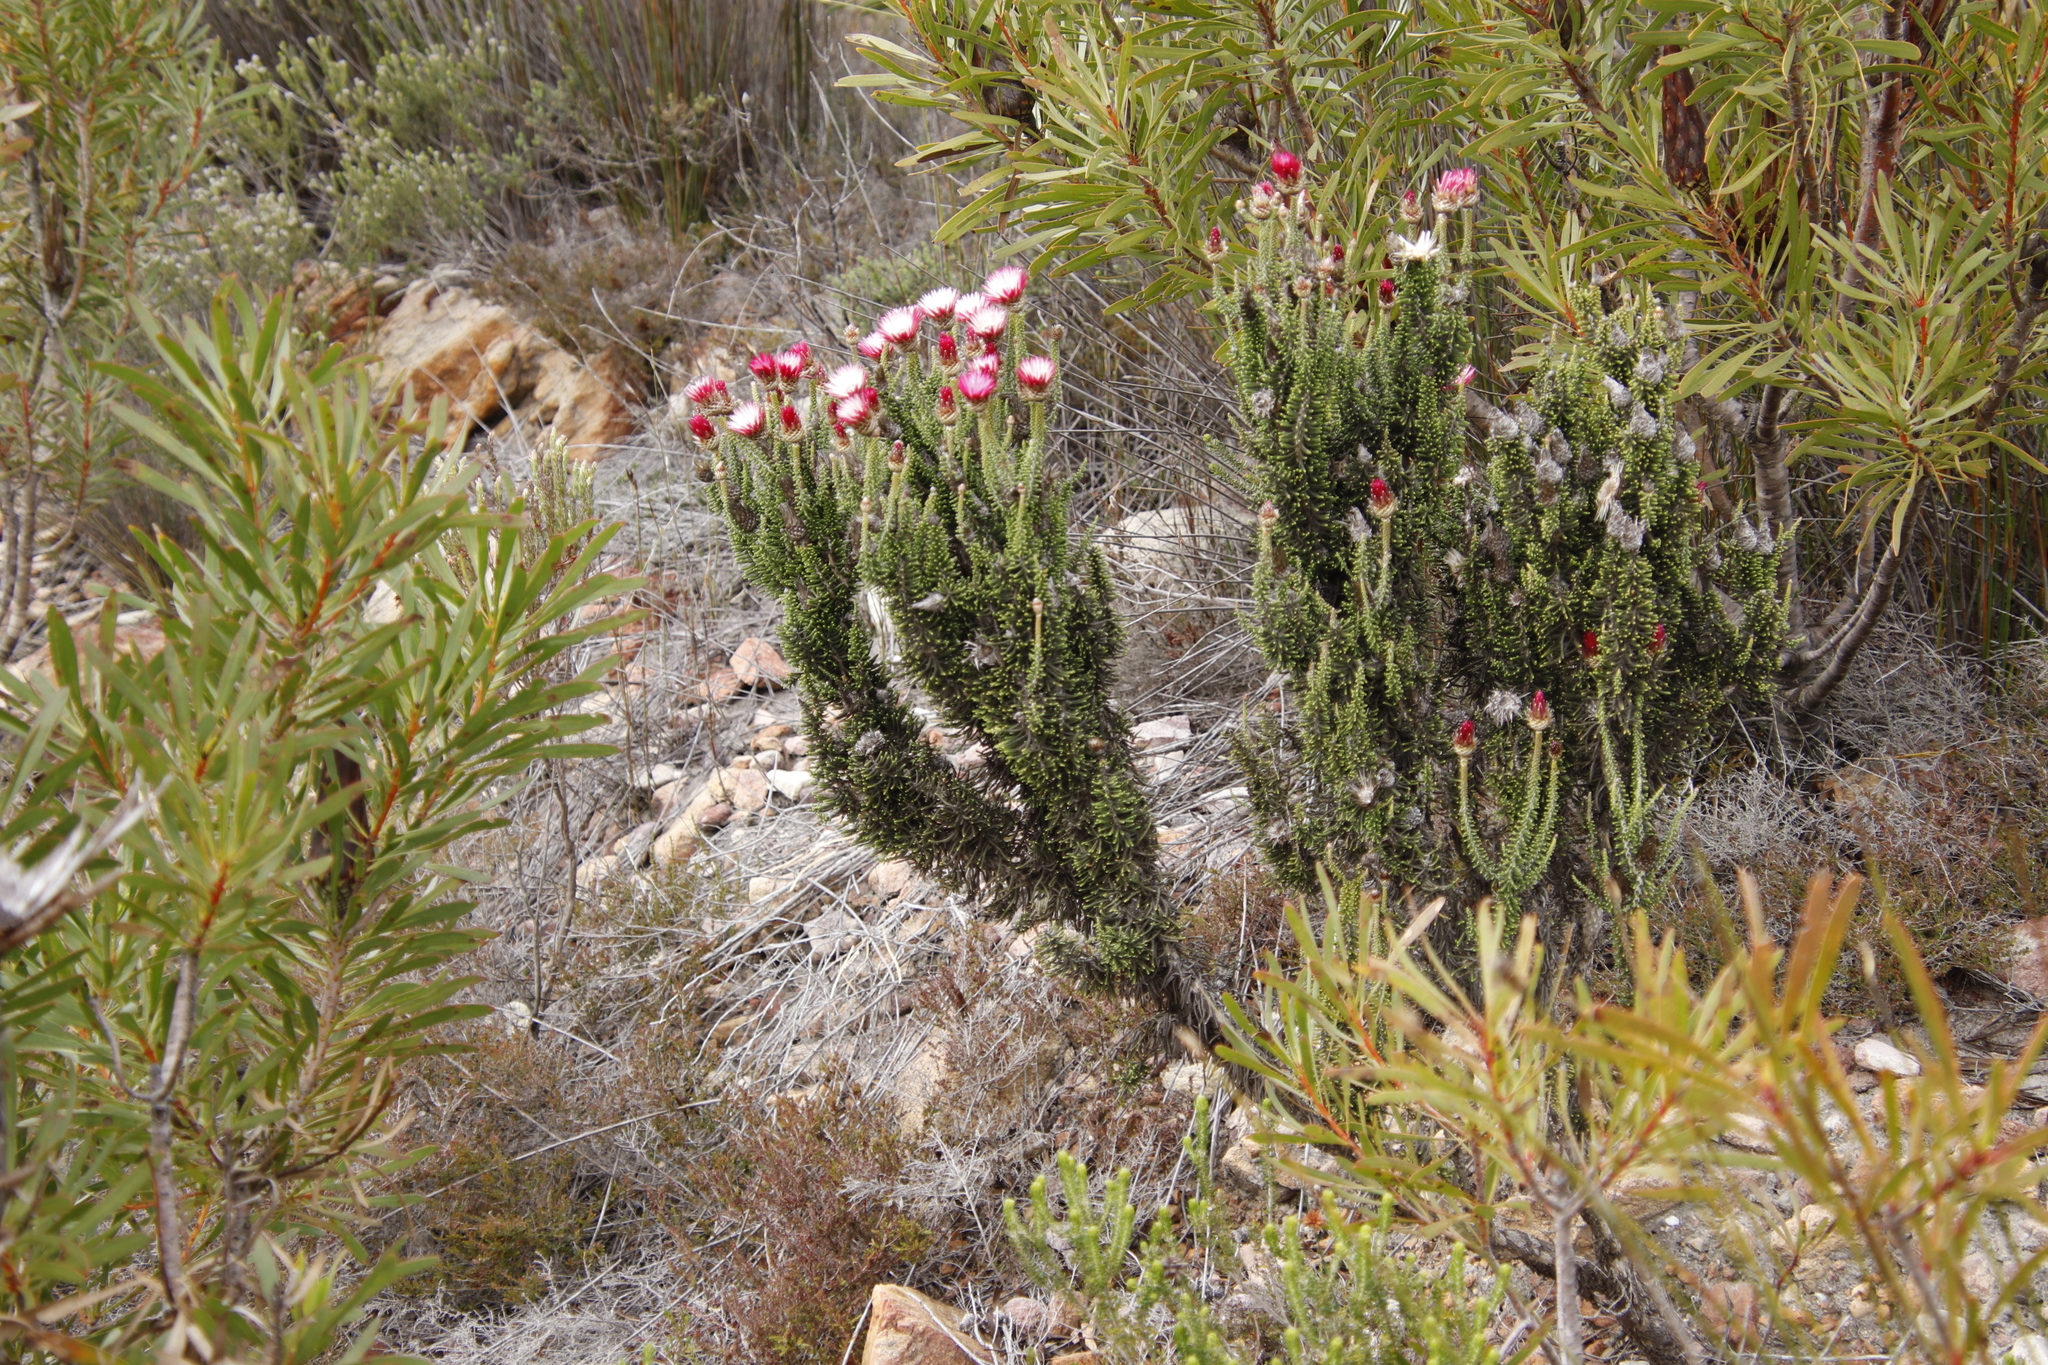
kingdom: Plantae
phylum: Tracheophyta
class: Magnoliopsida
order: Asterales
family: Asteraceae
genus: Phaenocoma
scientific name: Phaenocoma prolifera
